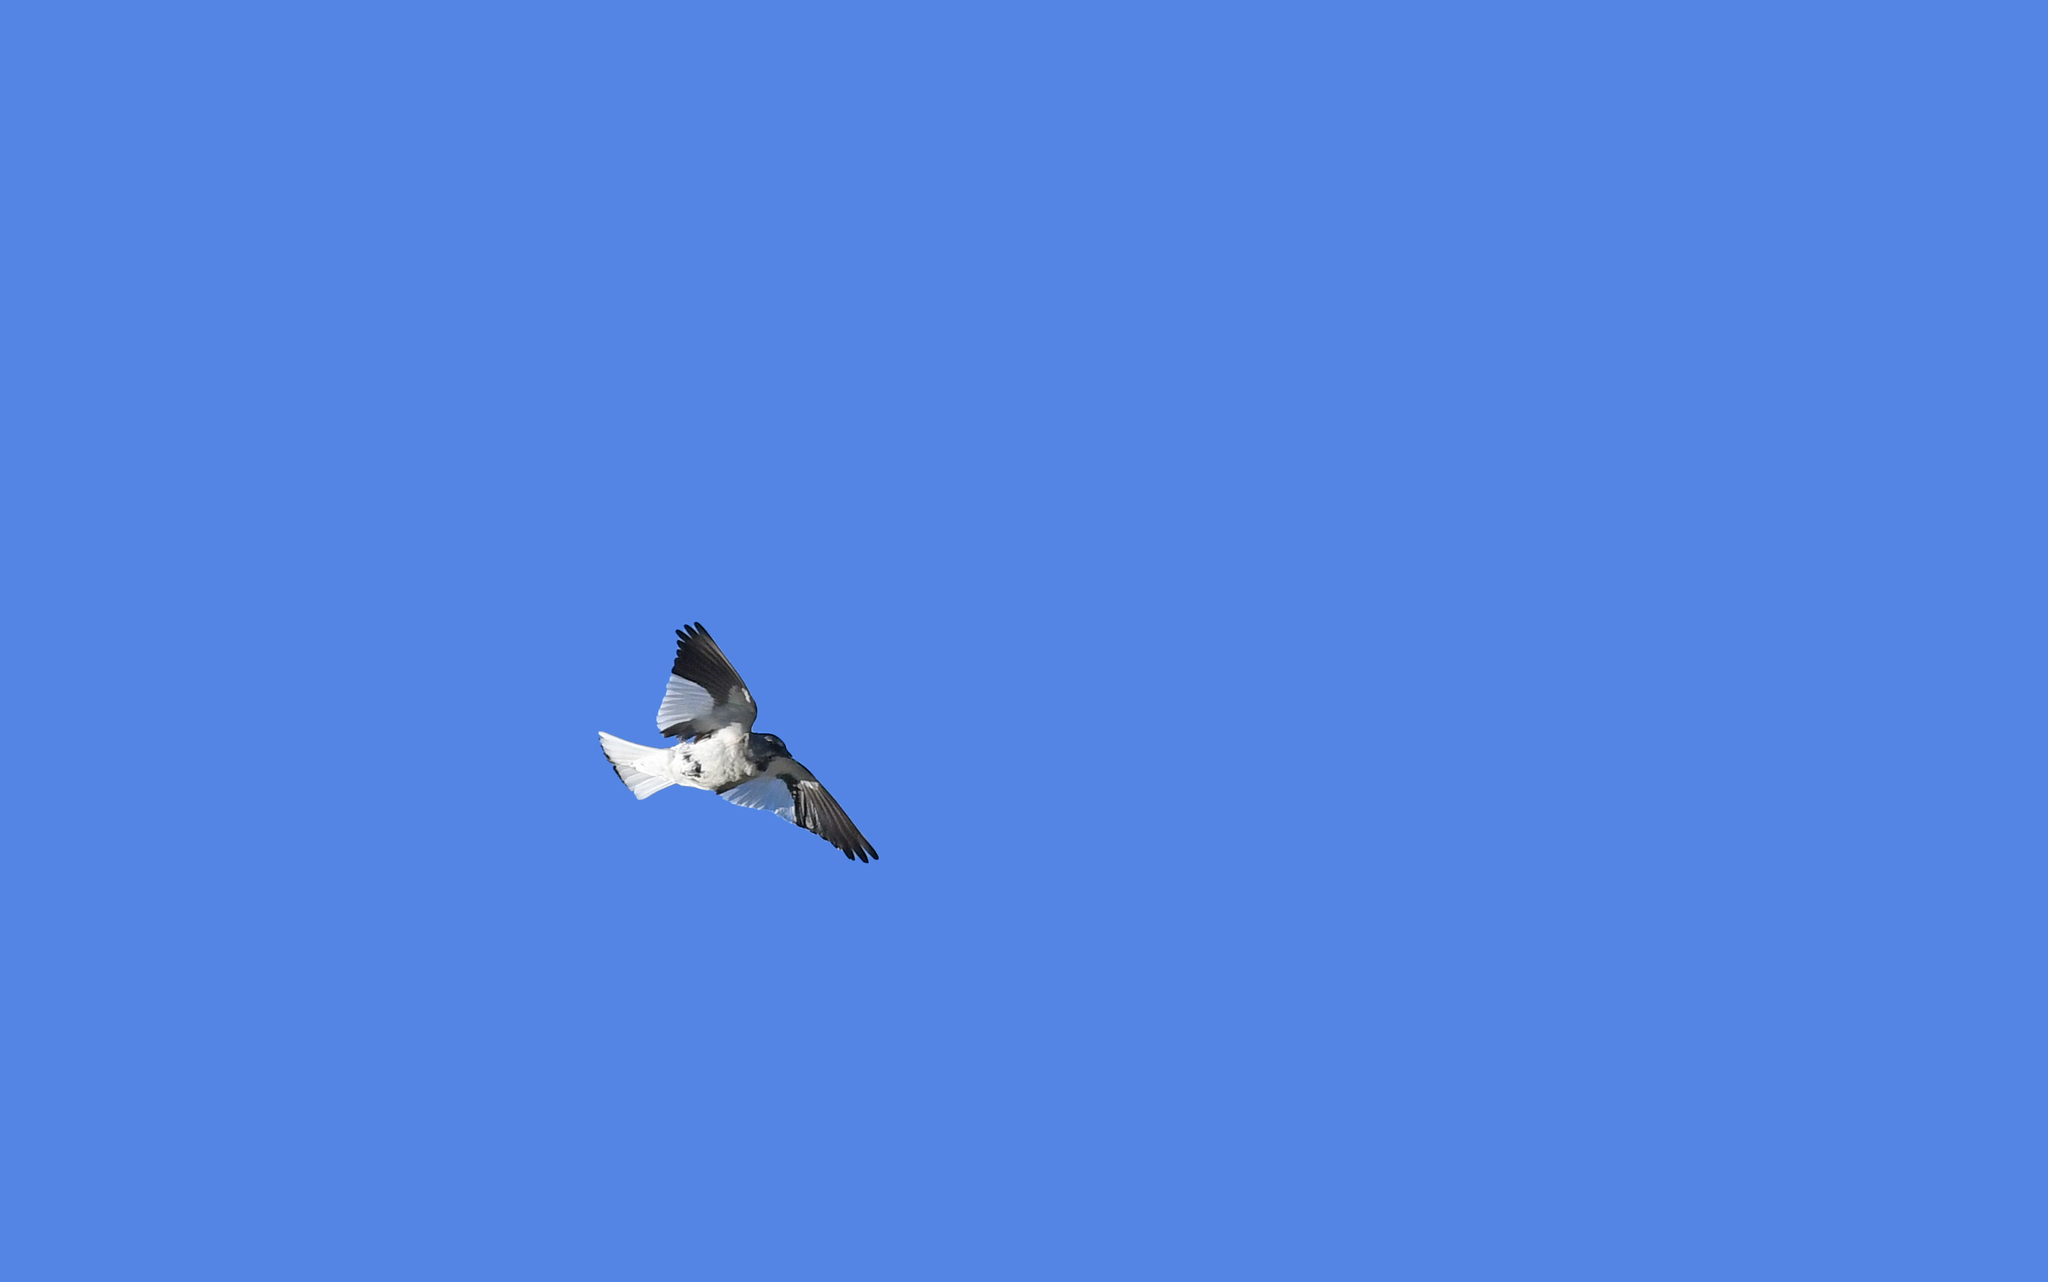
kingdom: Animalia
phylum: Chordata
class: Aves
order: Passeriformes
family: Passeridae
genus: Montifringilla
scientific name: Montifringilla nivalis
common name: White-winged snowfinch
